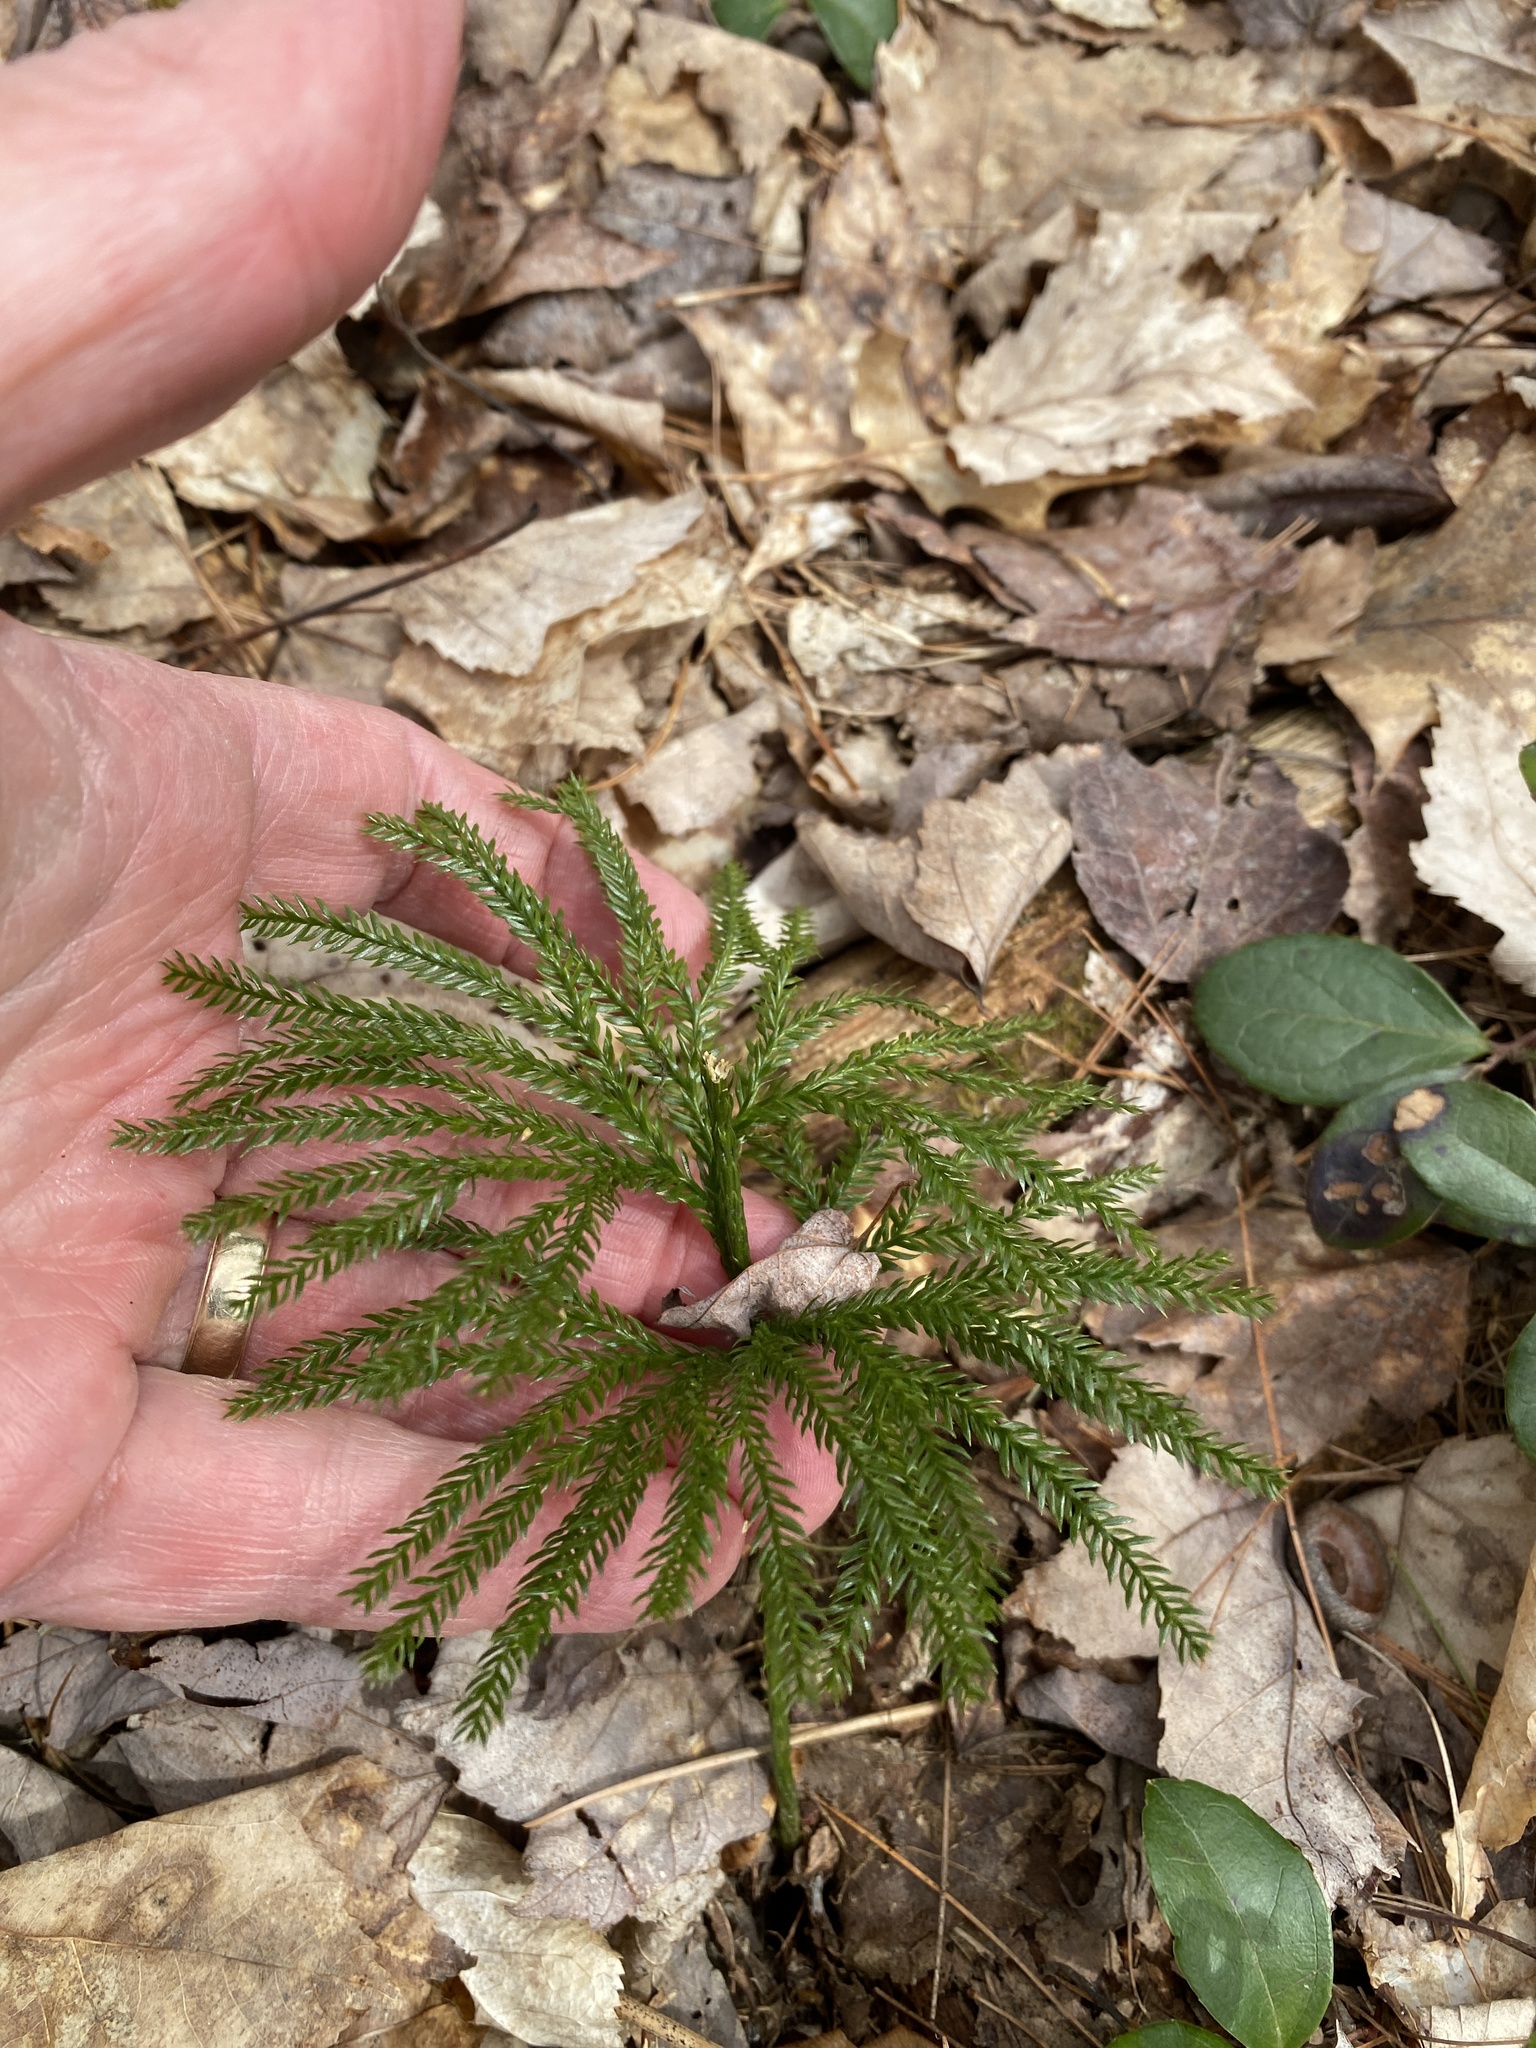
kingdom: Plantae
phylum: Tracheophyta
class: Lycopodiopsida
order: Lycopodiales
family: Lycopodiaceae
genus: Dendrolycopodium
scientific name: Dendrolycopodium obscurum
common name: Common ground-pine
